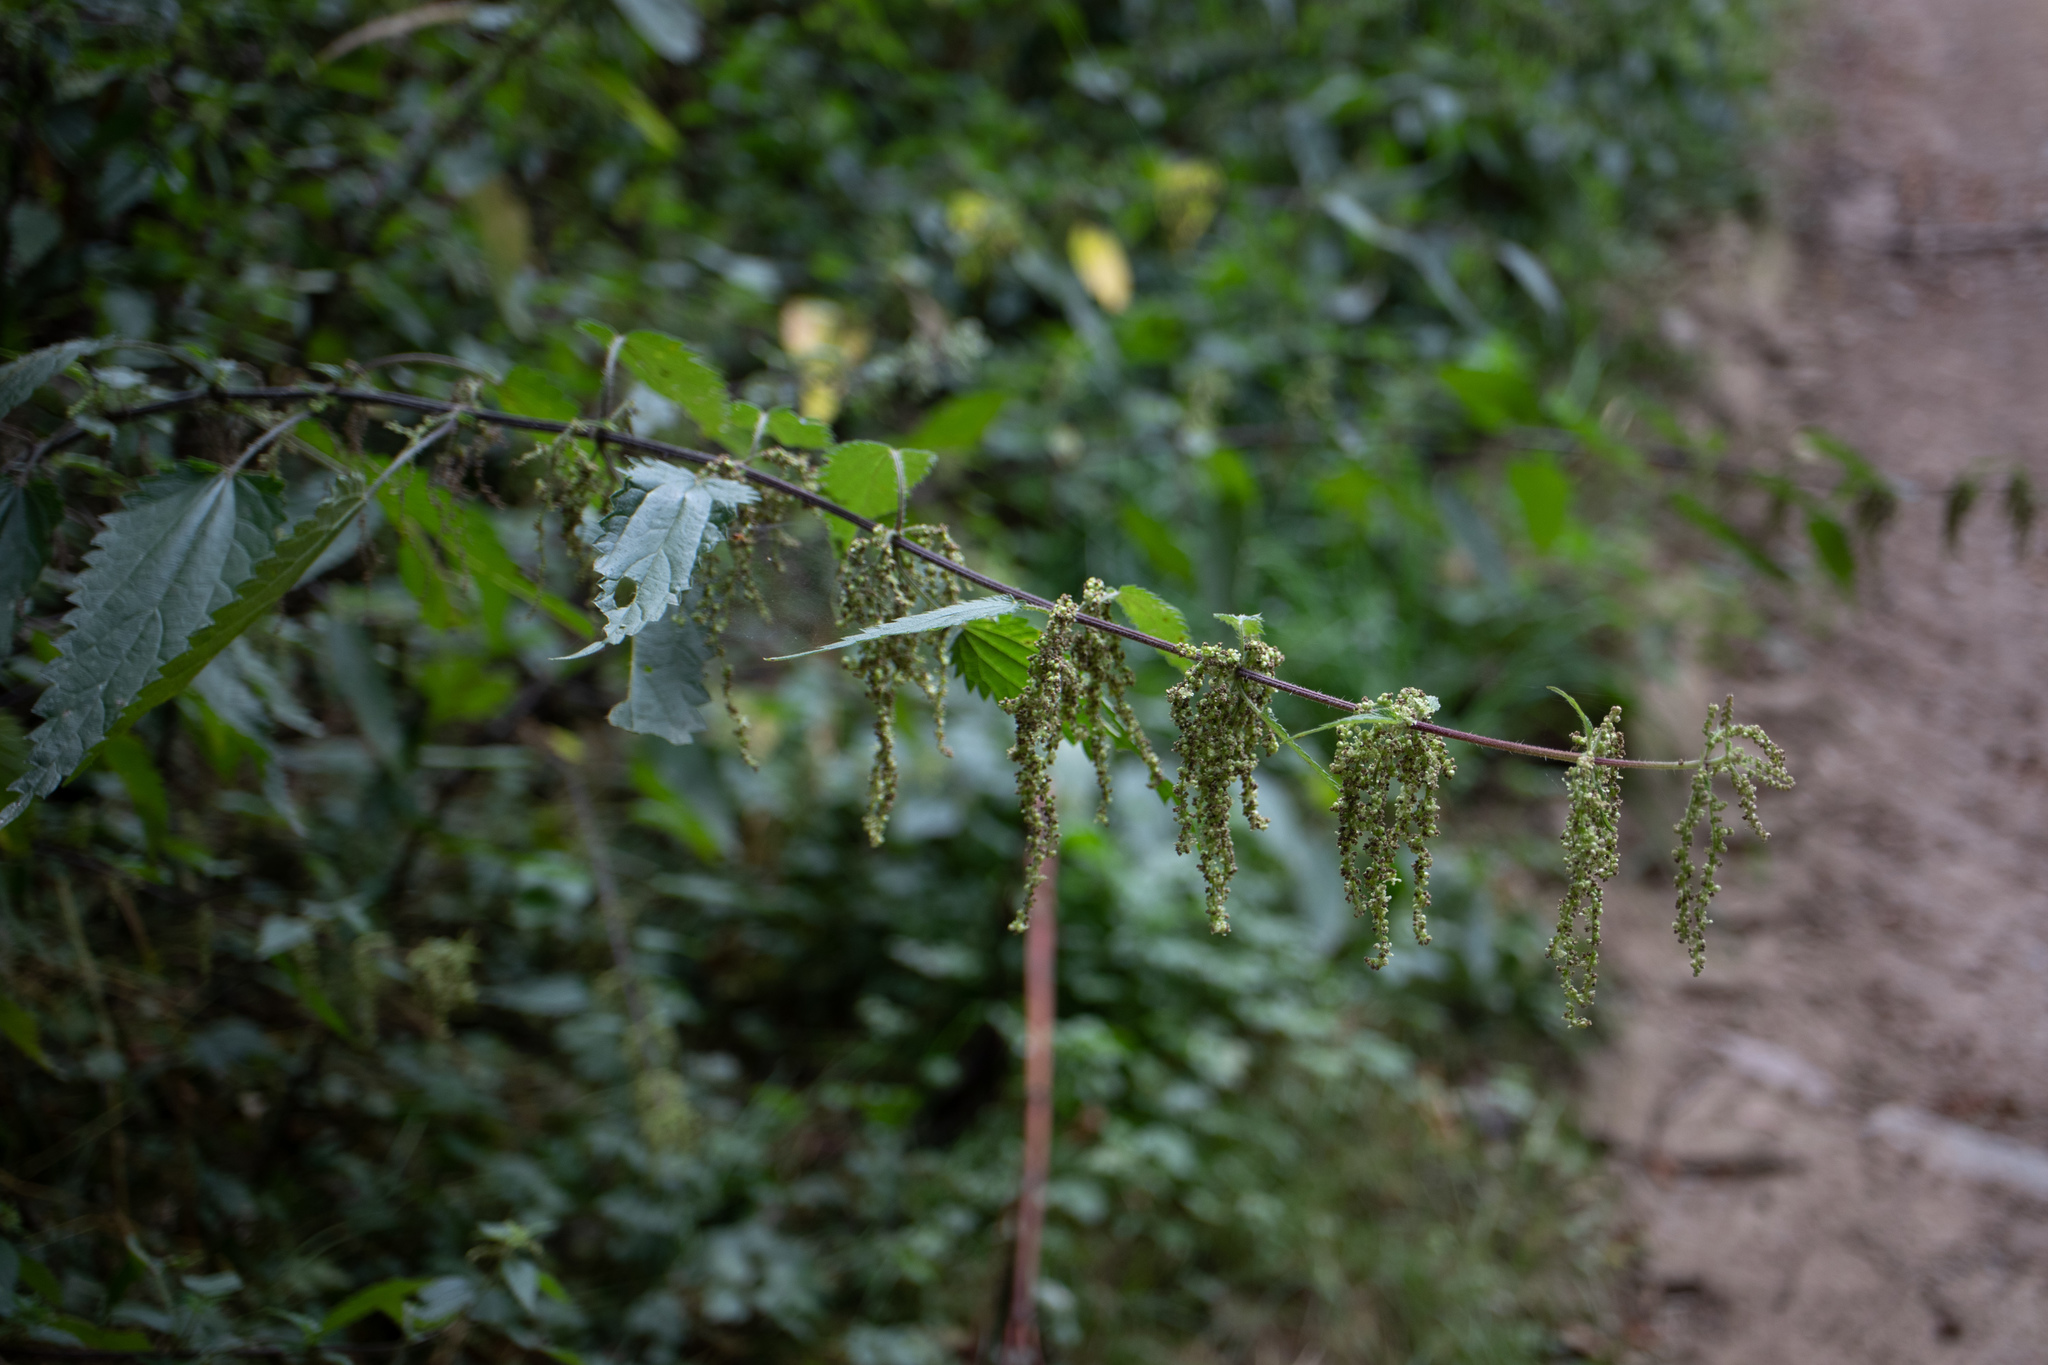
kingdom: Plantae
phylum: Tracheophyta
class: Magnoliopsida
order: Rosales
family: Urticaceae
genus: Urtica
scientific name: Urtica dioica
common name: Common nettle
